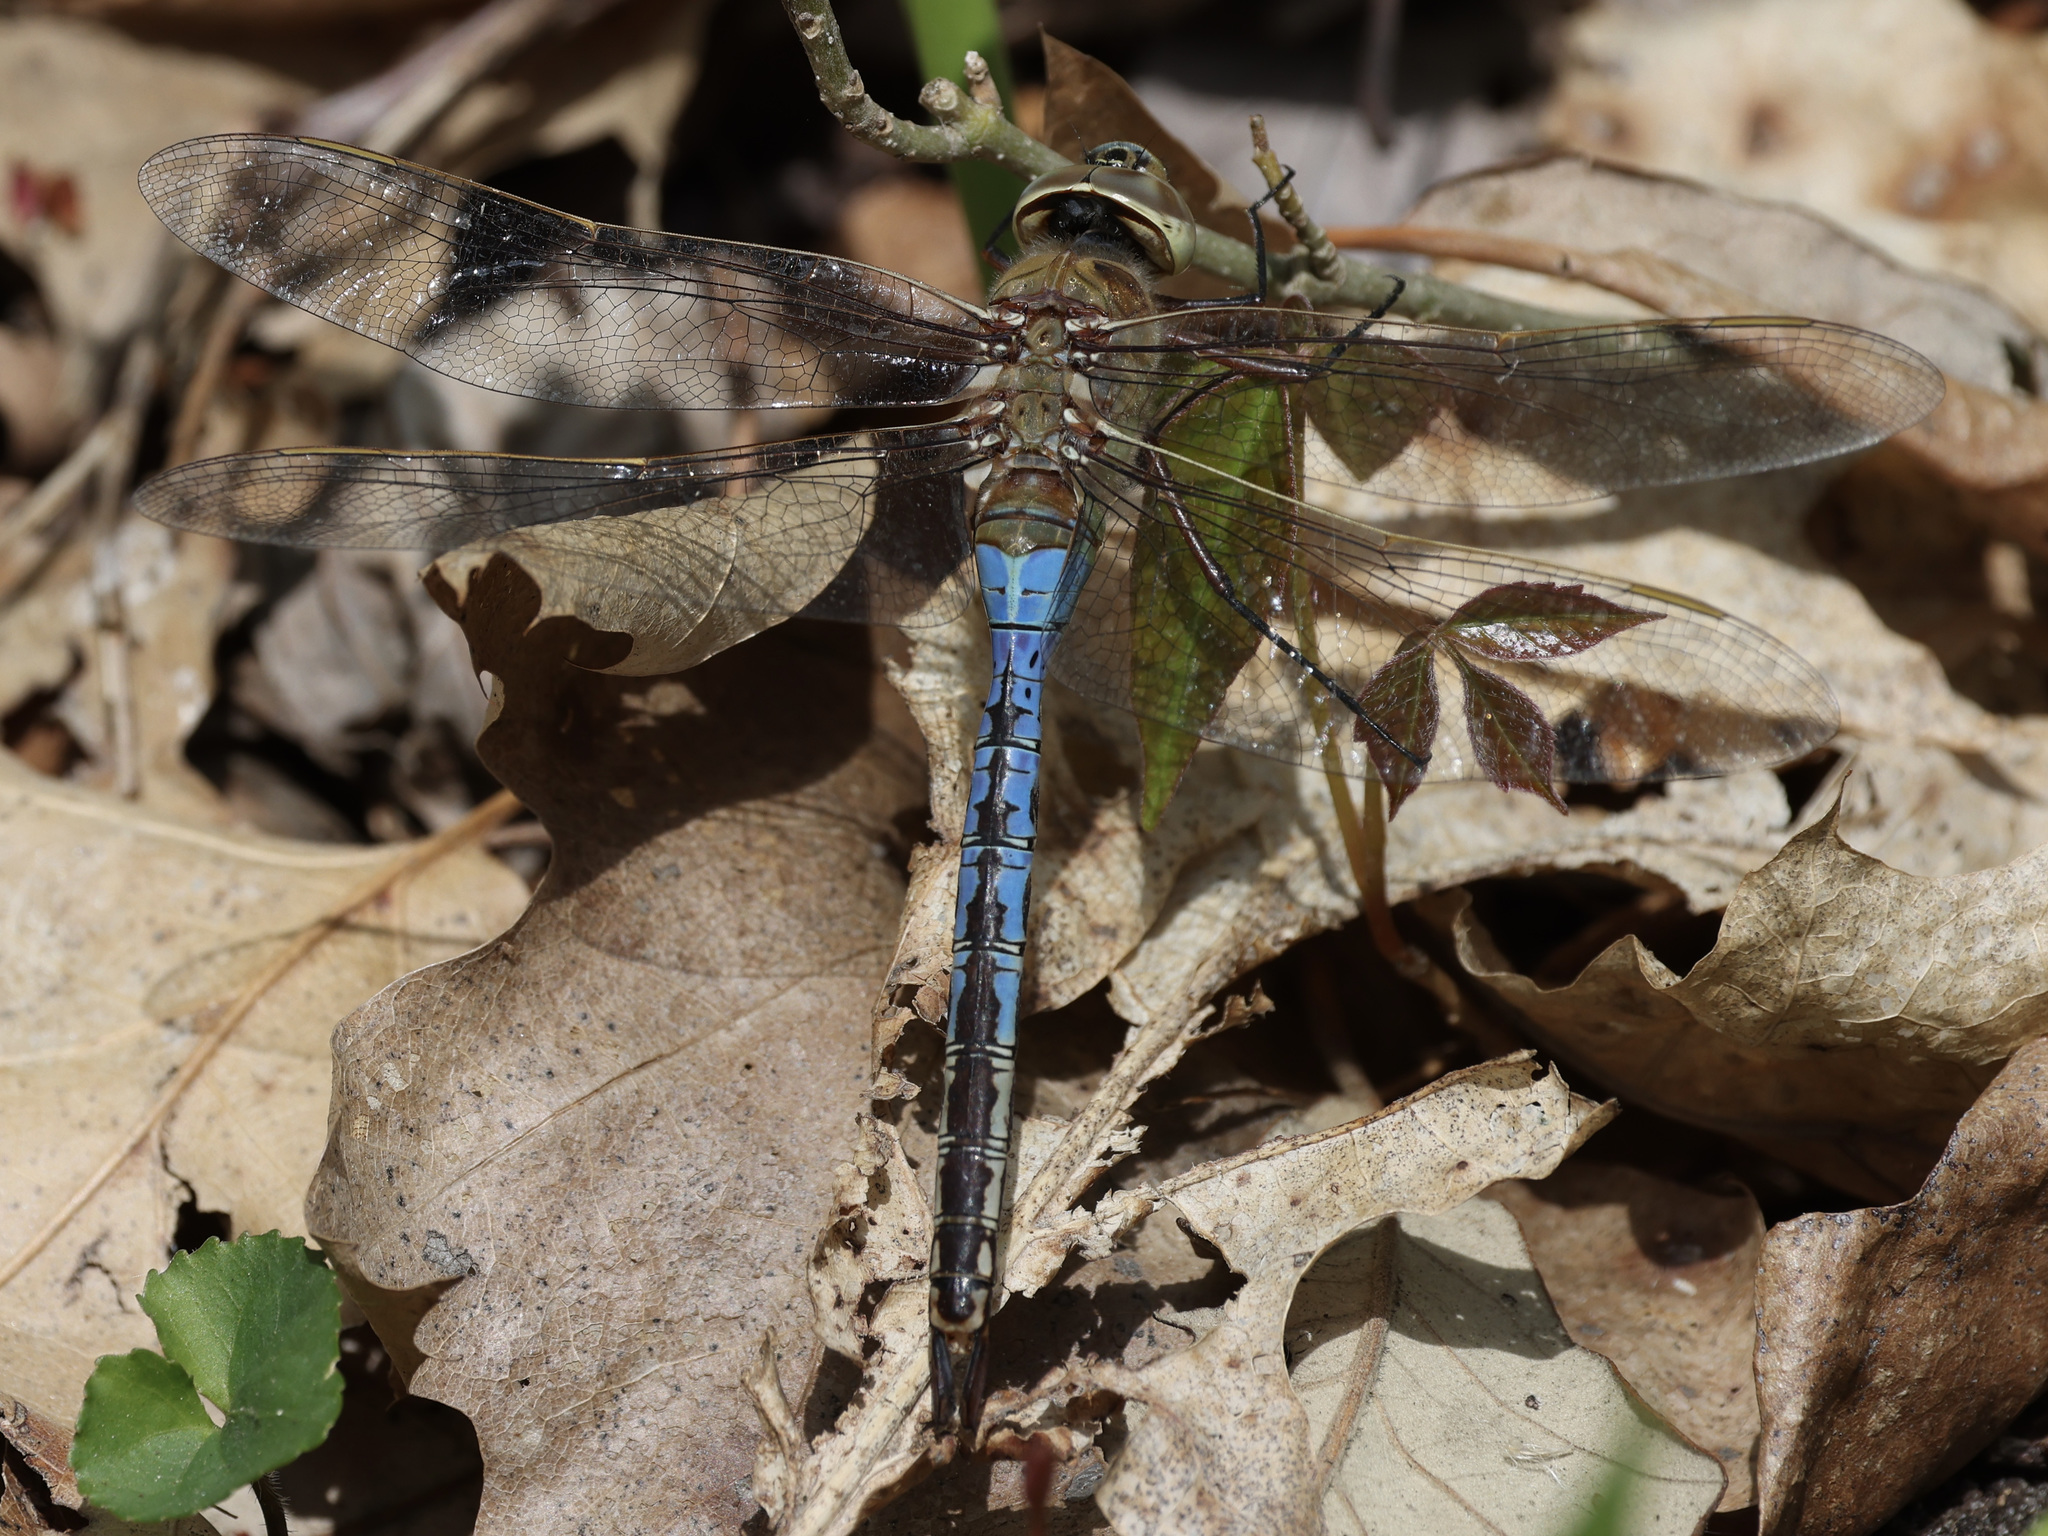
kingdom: Animalia
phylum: Arthropoda
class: Insecta
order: Odonata
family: Aeshnidae
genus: Anax
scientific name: Anax junius
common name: Common green darner
